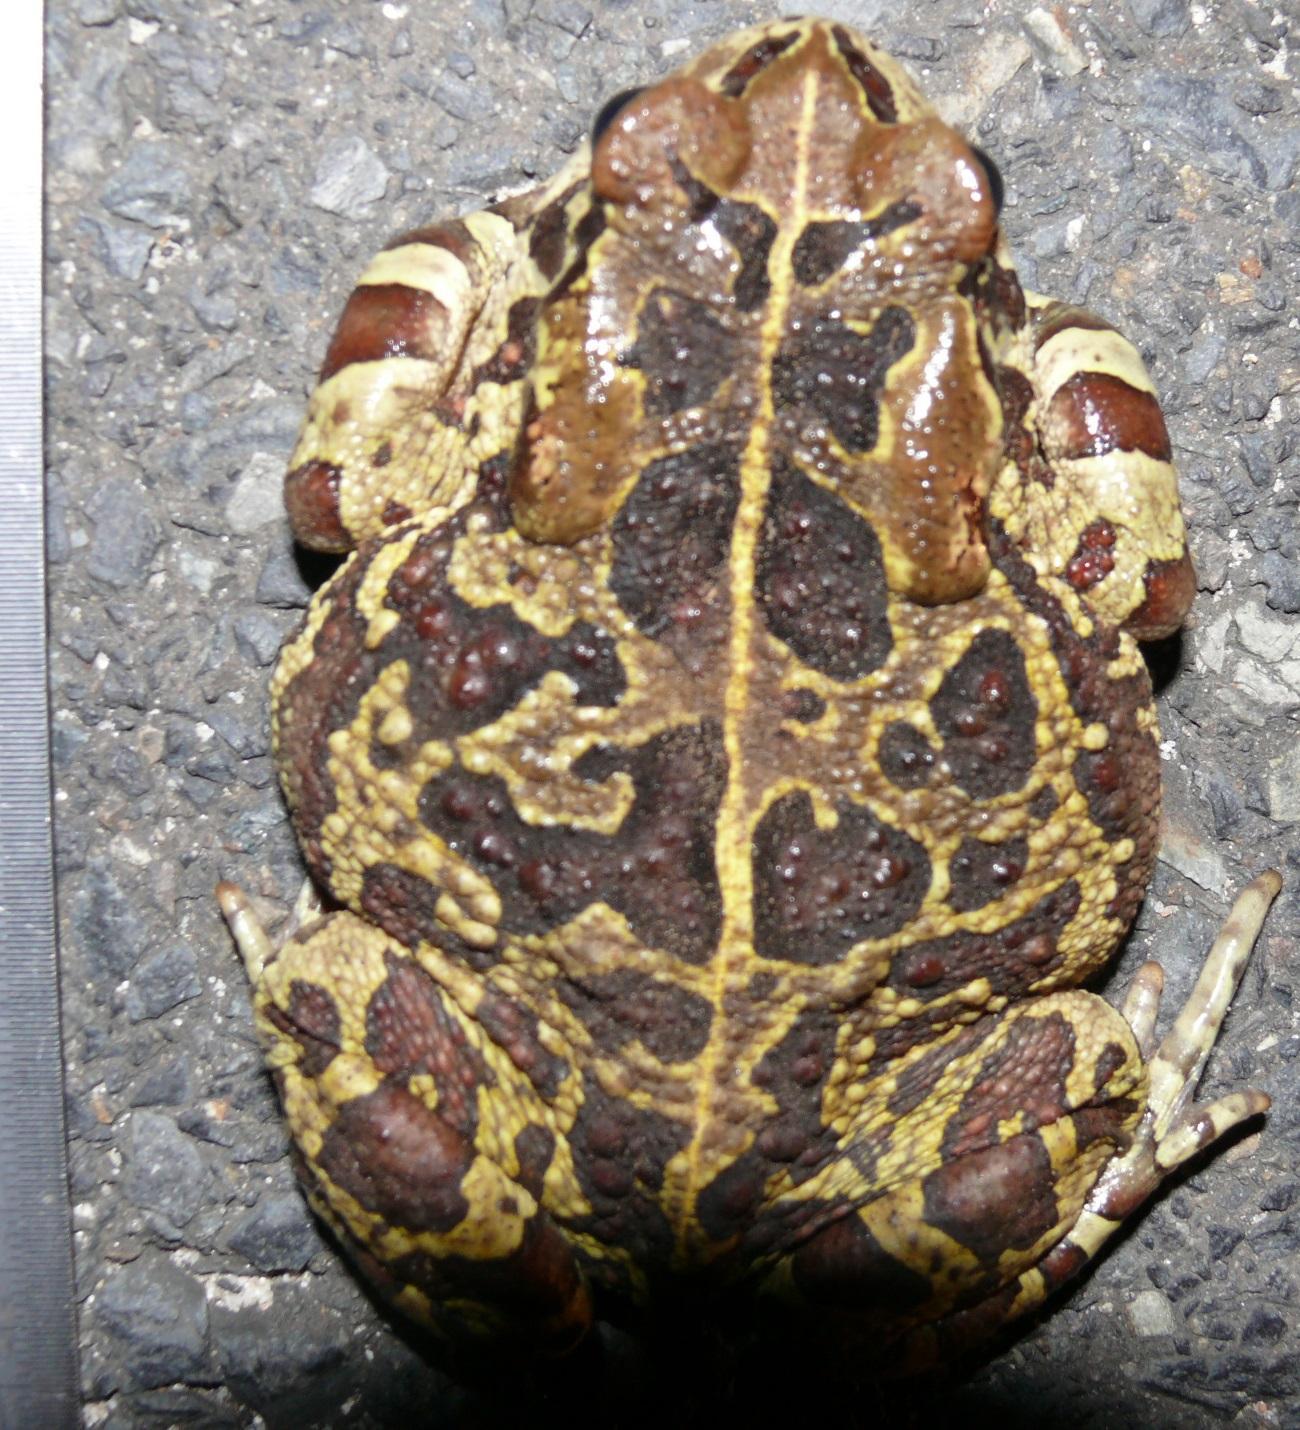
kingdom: Animalia
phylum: Chordata
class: Amphibia
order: Anura
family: Bufonidae
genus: Sclerophrys
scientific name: Sclerophrys pantherina
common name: Panther toad
